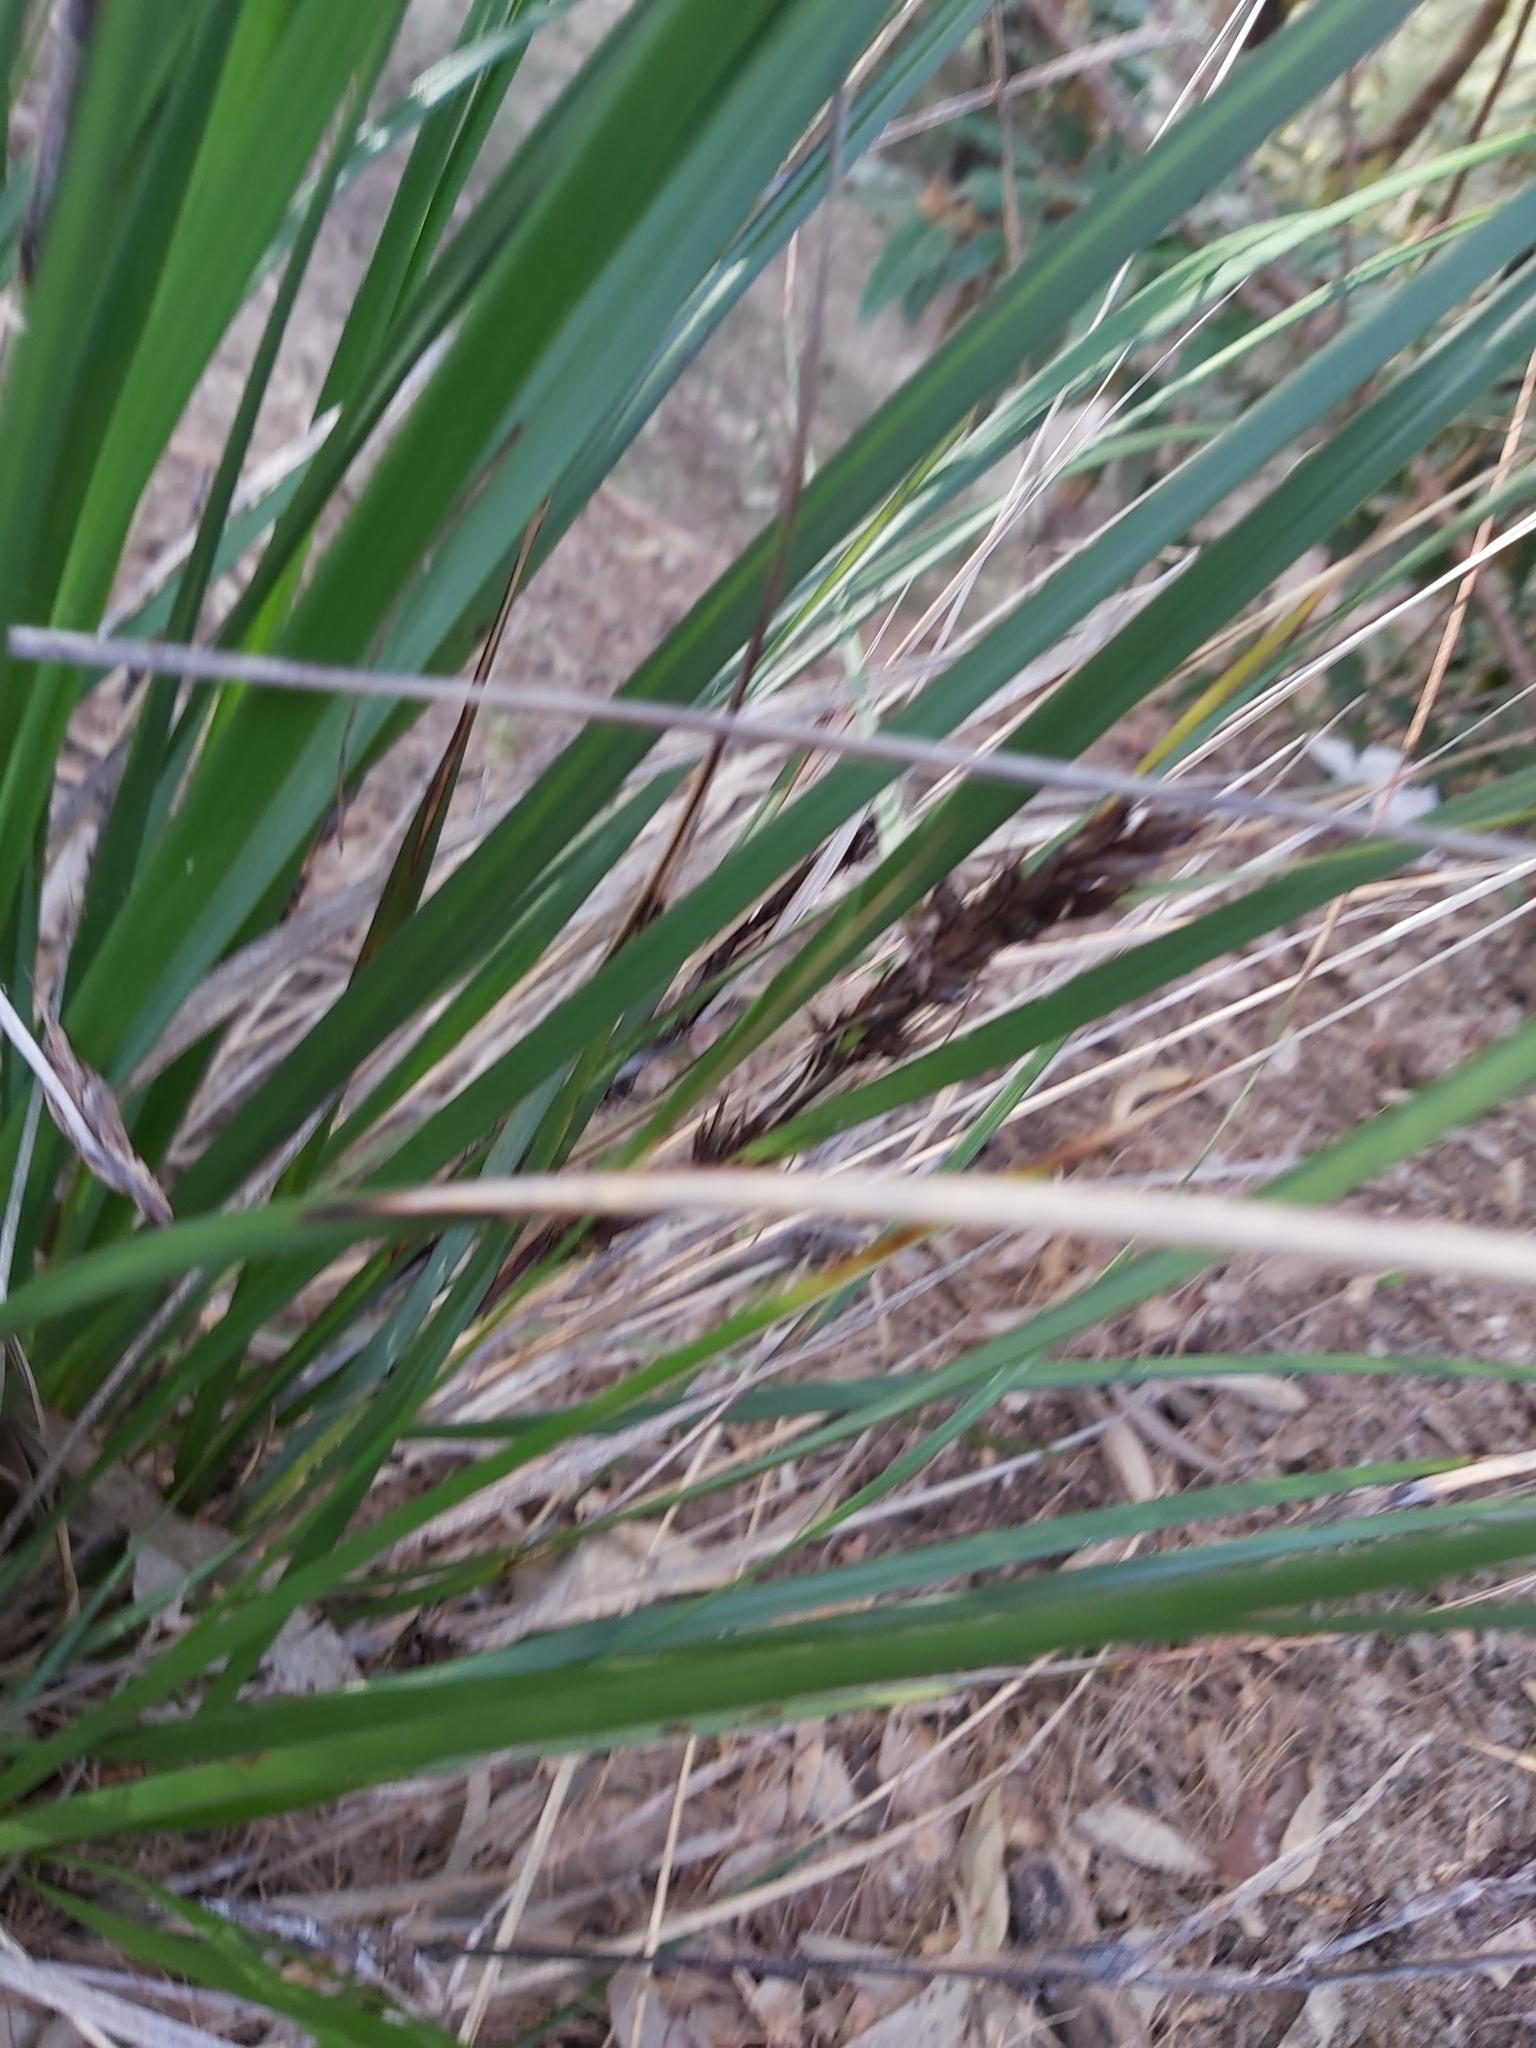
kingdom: Plantae
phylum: Tracheophyta
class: Liliopsida
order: Poales
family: Cyperaceae
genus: Gahnia
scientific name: Gahnia aspera
